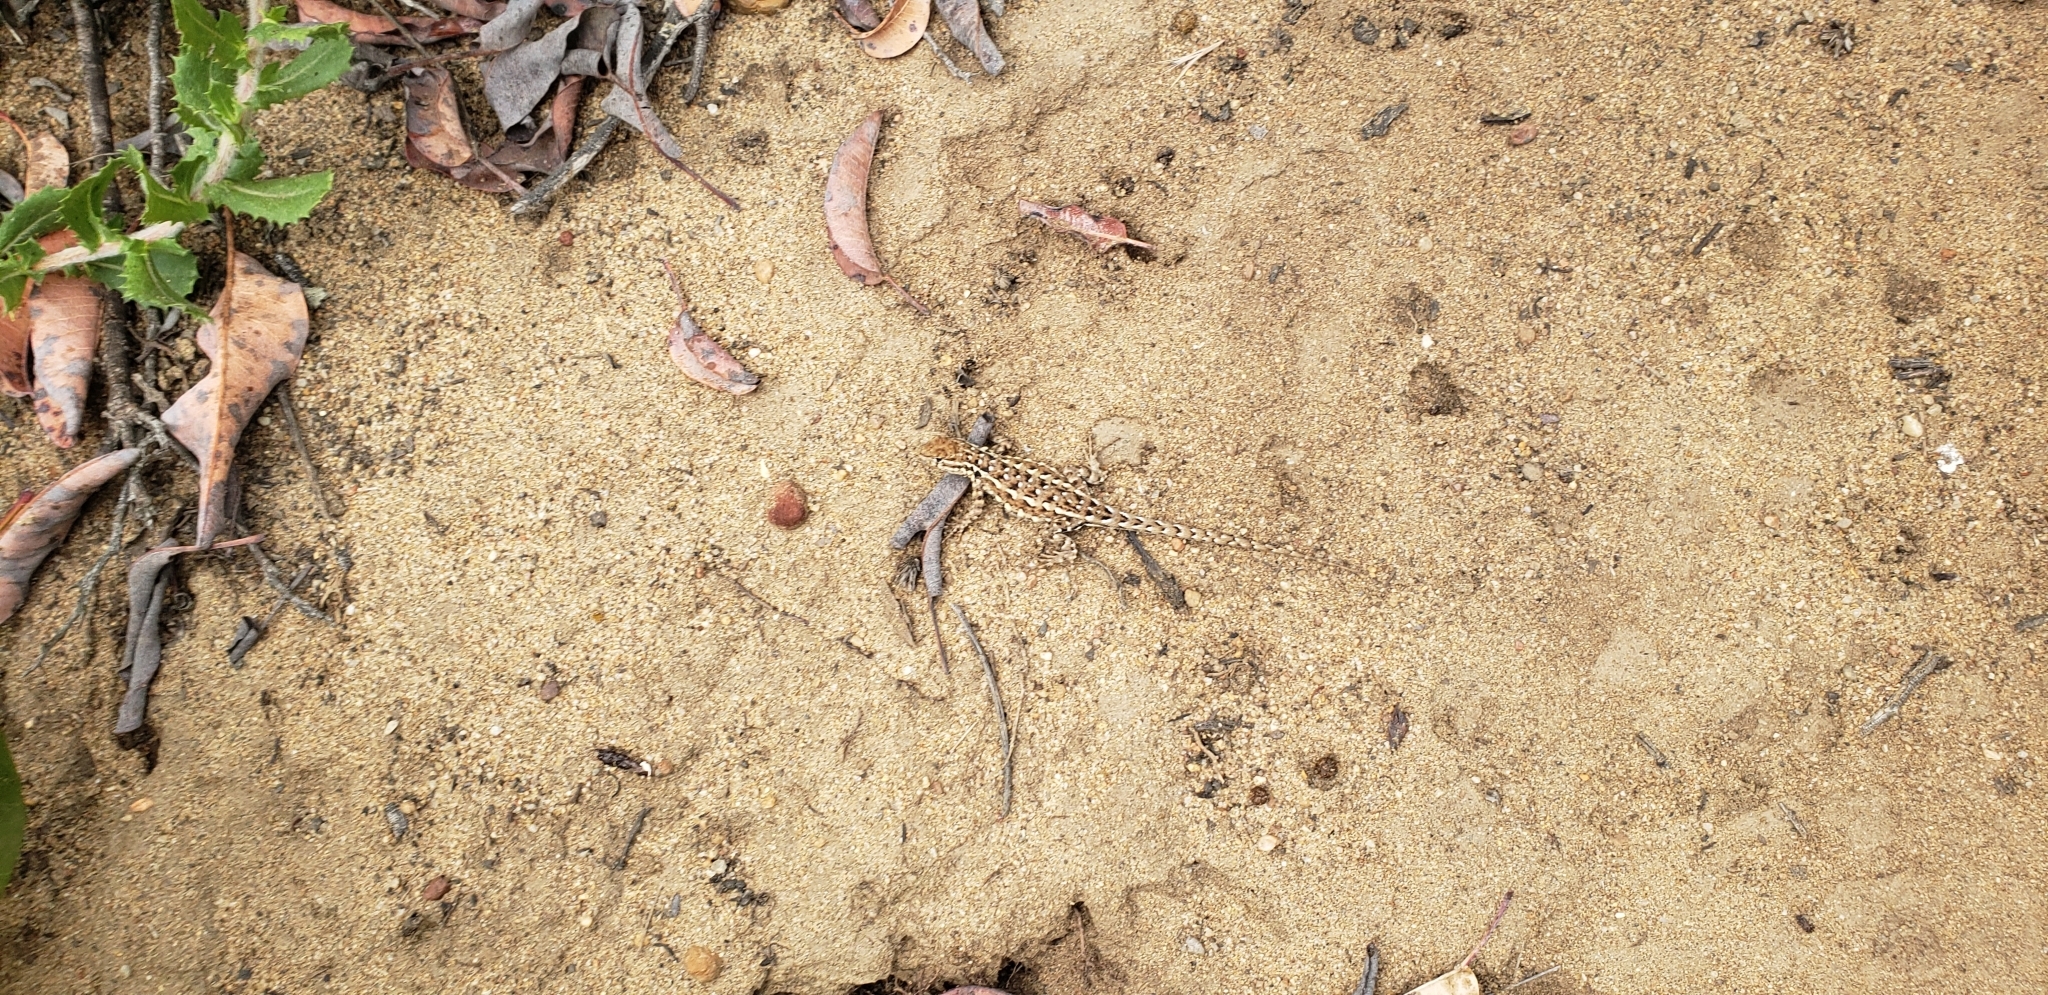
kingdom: Animalia
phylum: Chordata
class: Squamata
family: Phrynosomatidae
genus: Uta
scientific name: Uta stansburiana
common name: Side-blotched lizard
